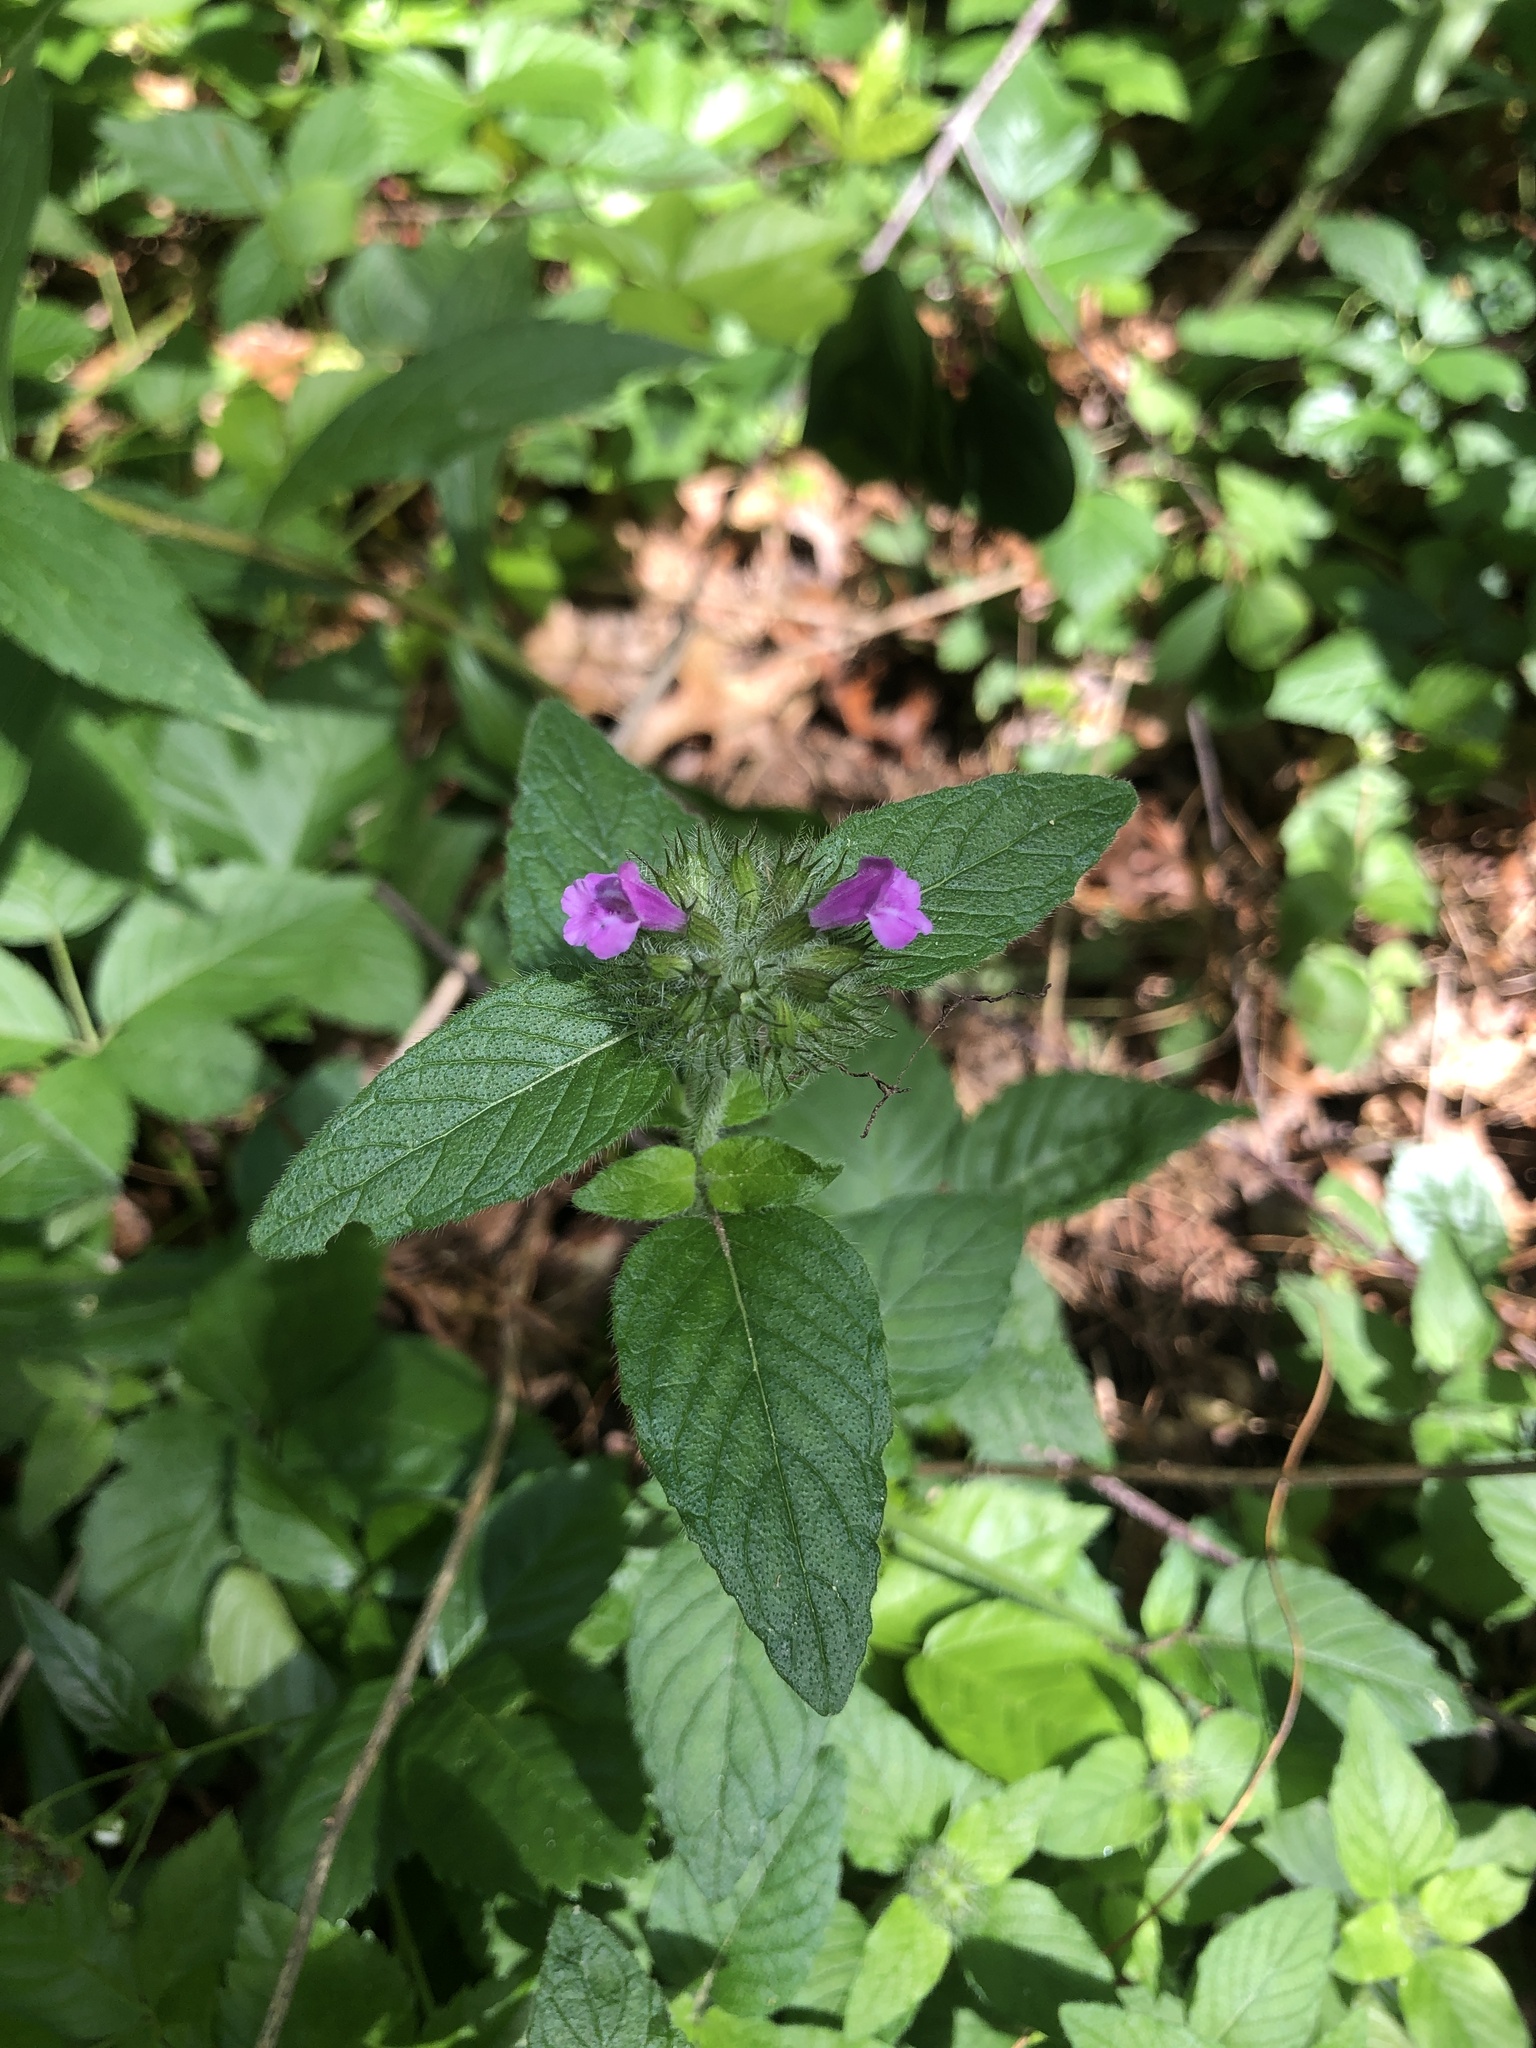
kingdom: Plantae
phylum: Tracheophyta
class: Magnoliopsida
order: Lamiales
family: Lamiaceae
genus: Clinopodium
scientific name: Clinopodium vulgare
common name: Wild basil
